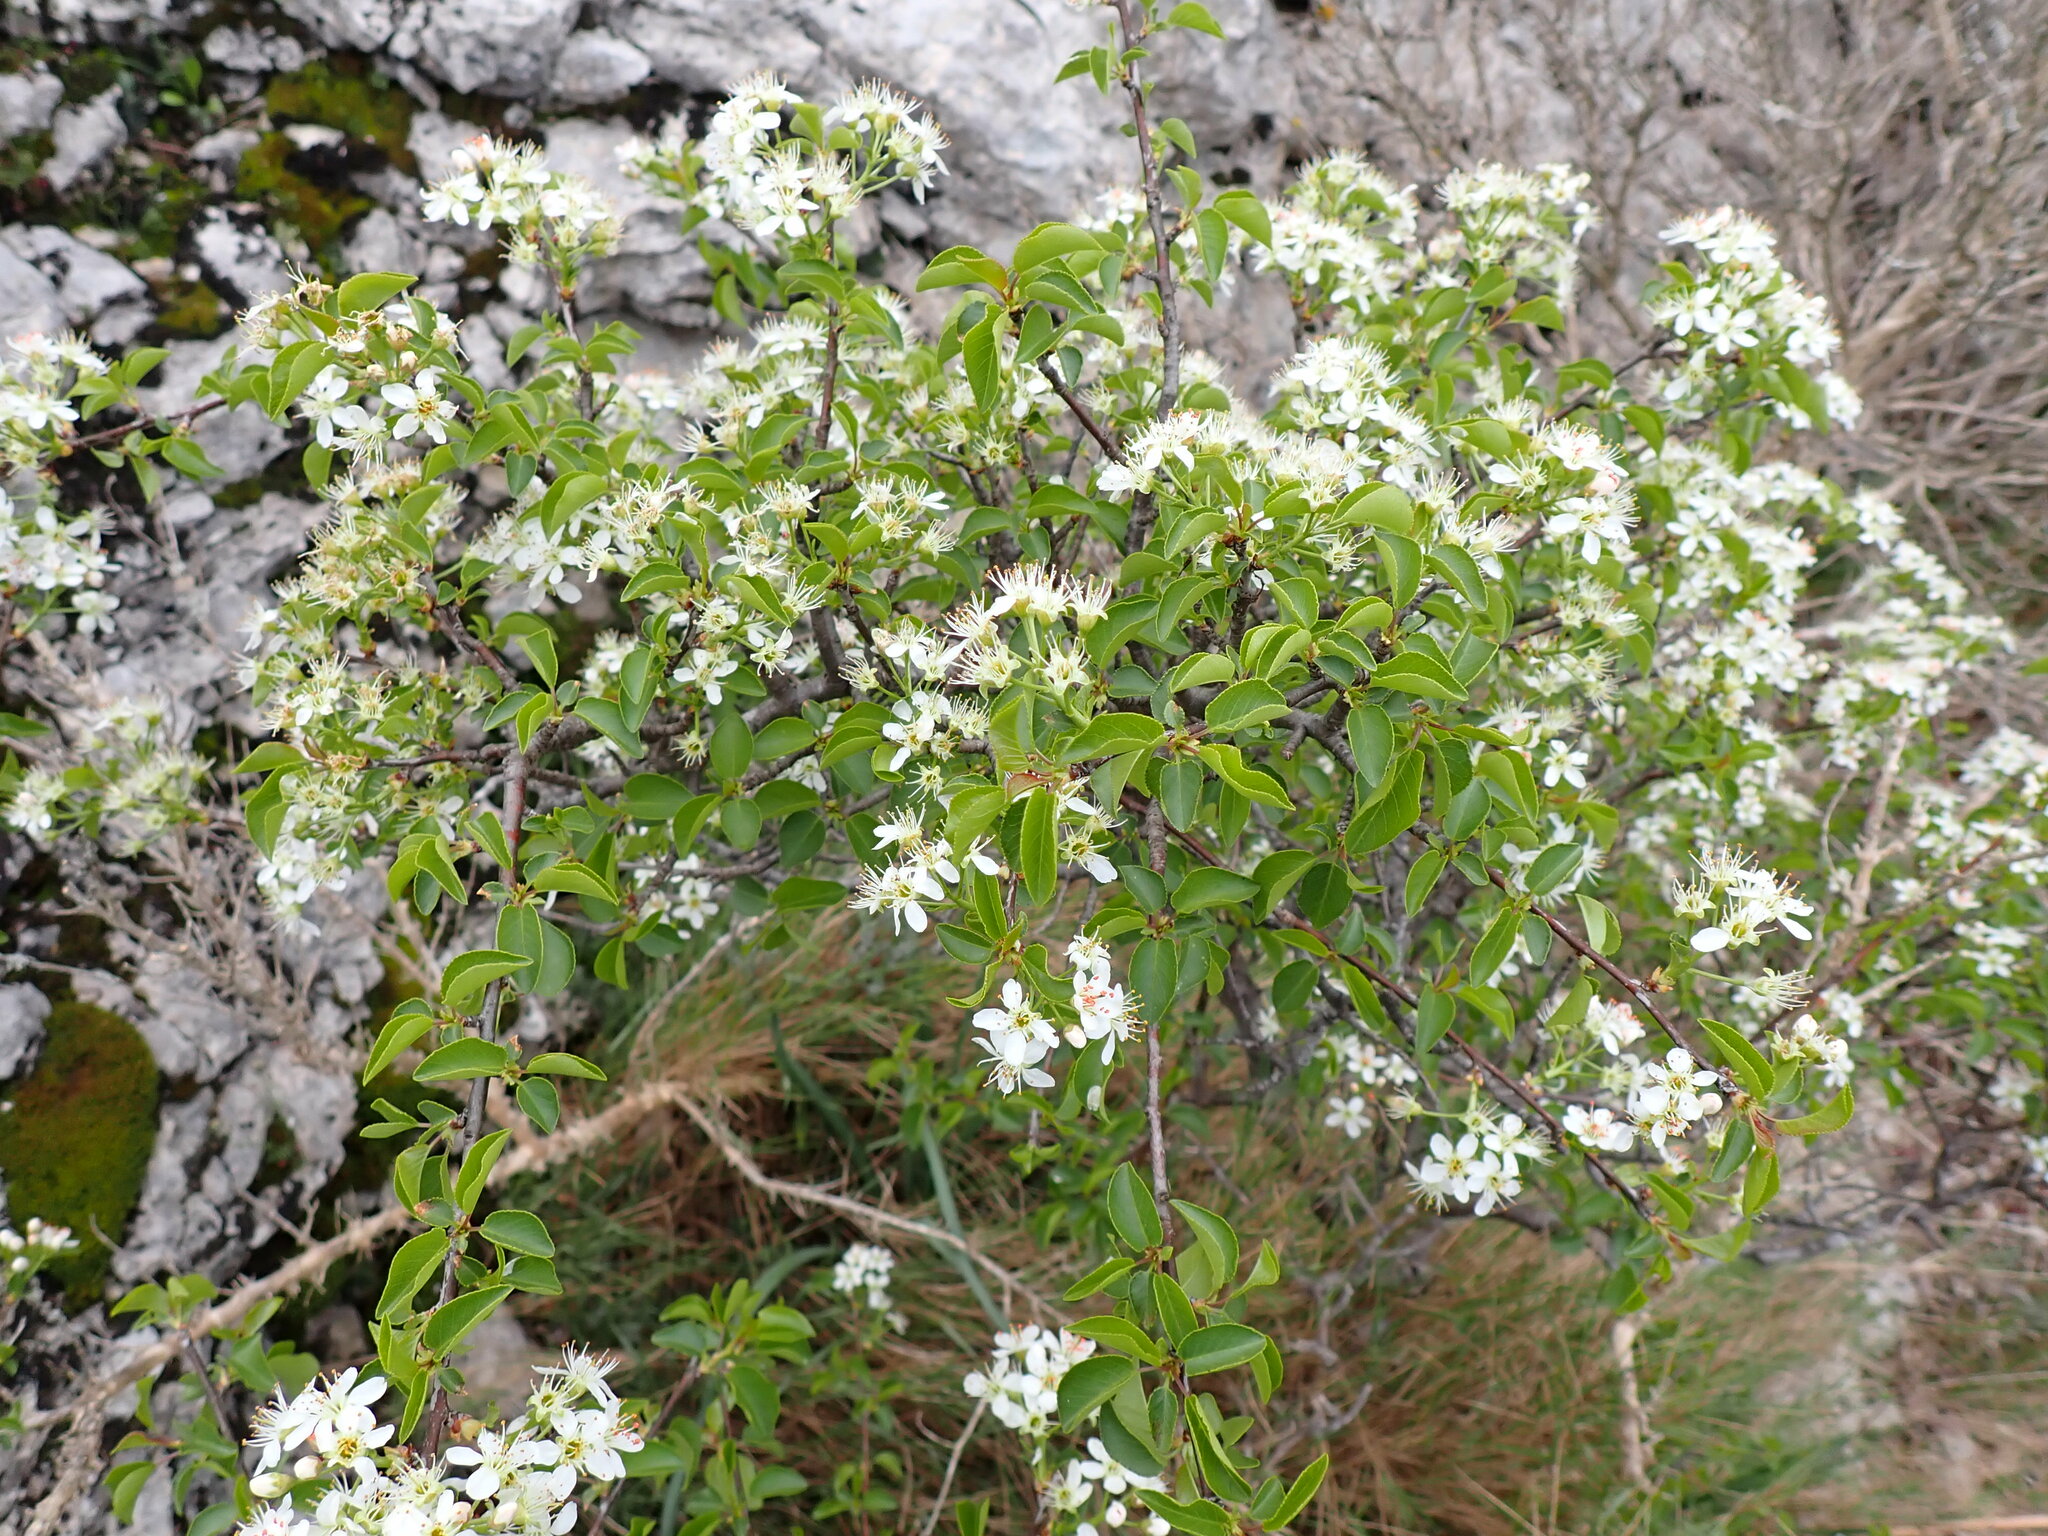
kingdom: Plantae
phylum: Tracheophyta
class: Magnoliopsida
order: Rosales
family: Rosaceae
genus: Prunus
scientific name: Prunus mahaleb
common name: Mahaleb cherry
